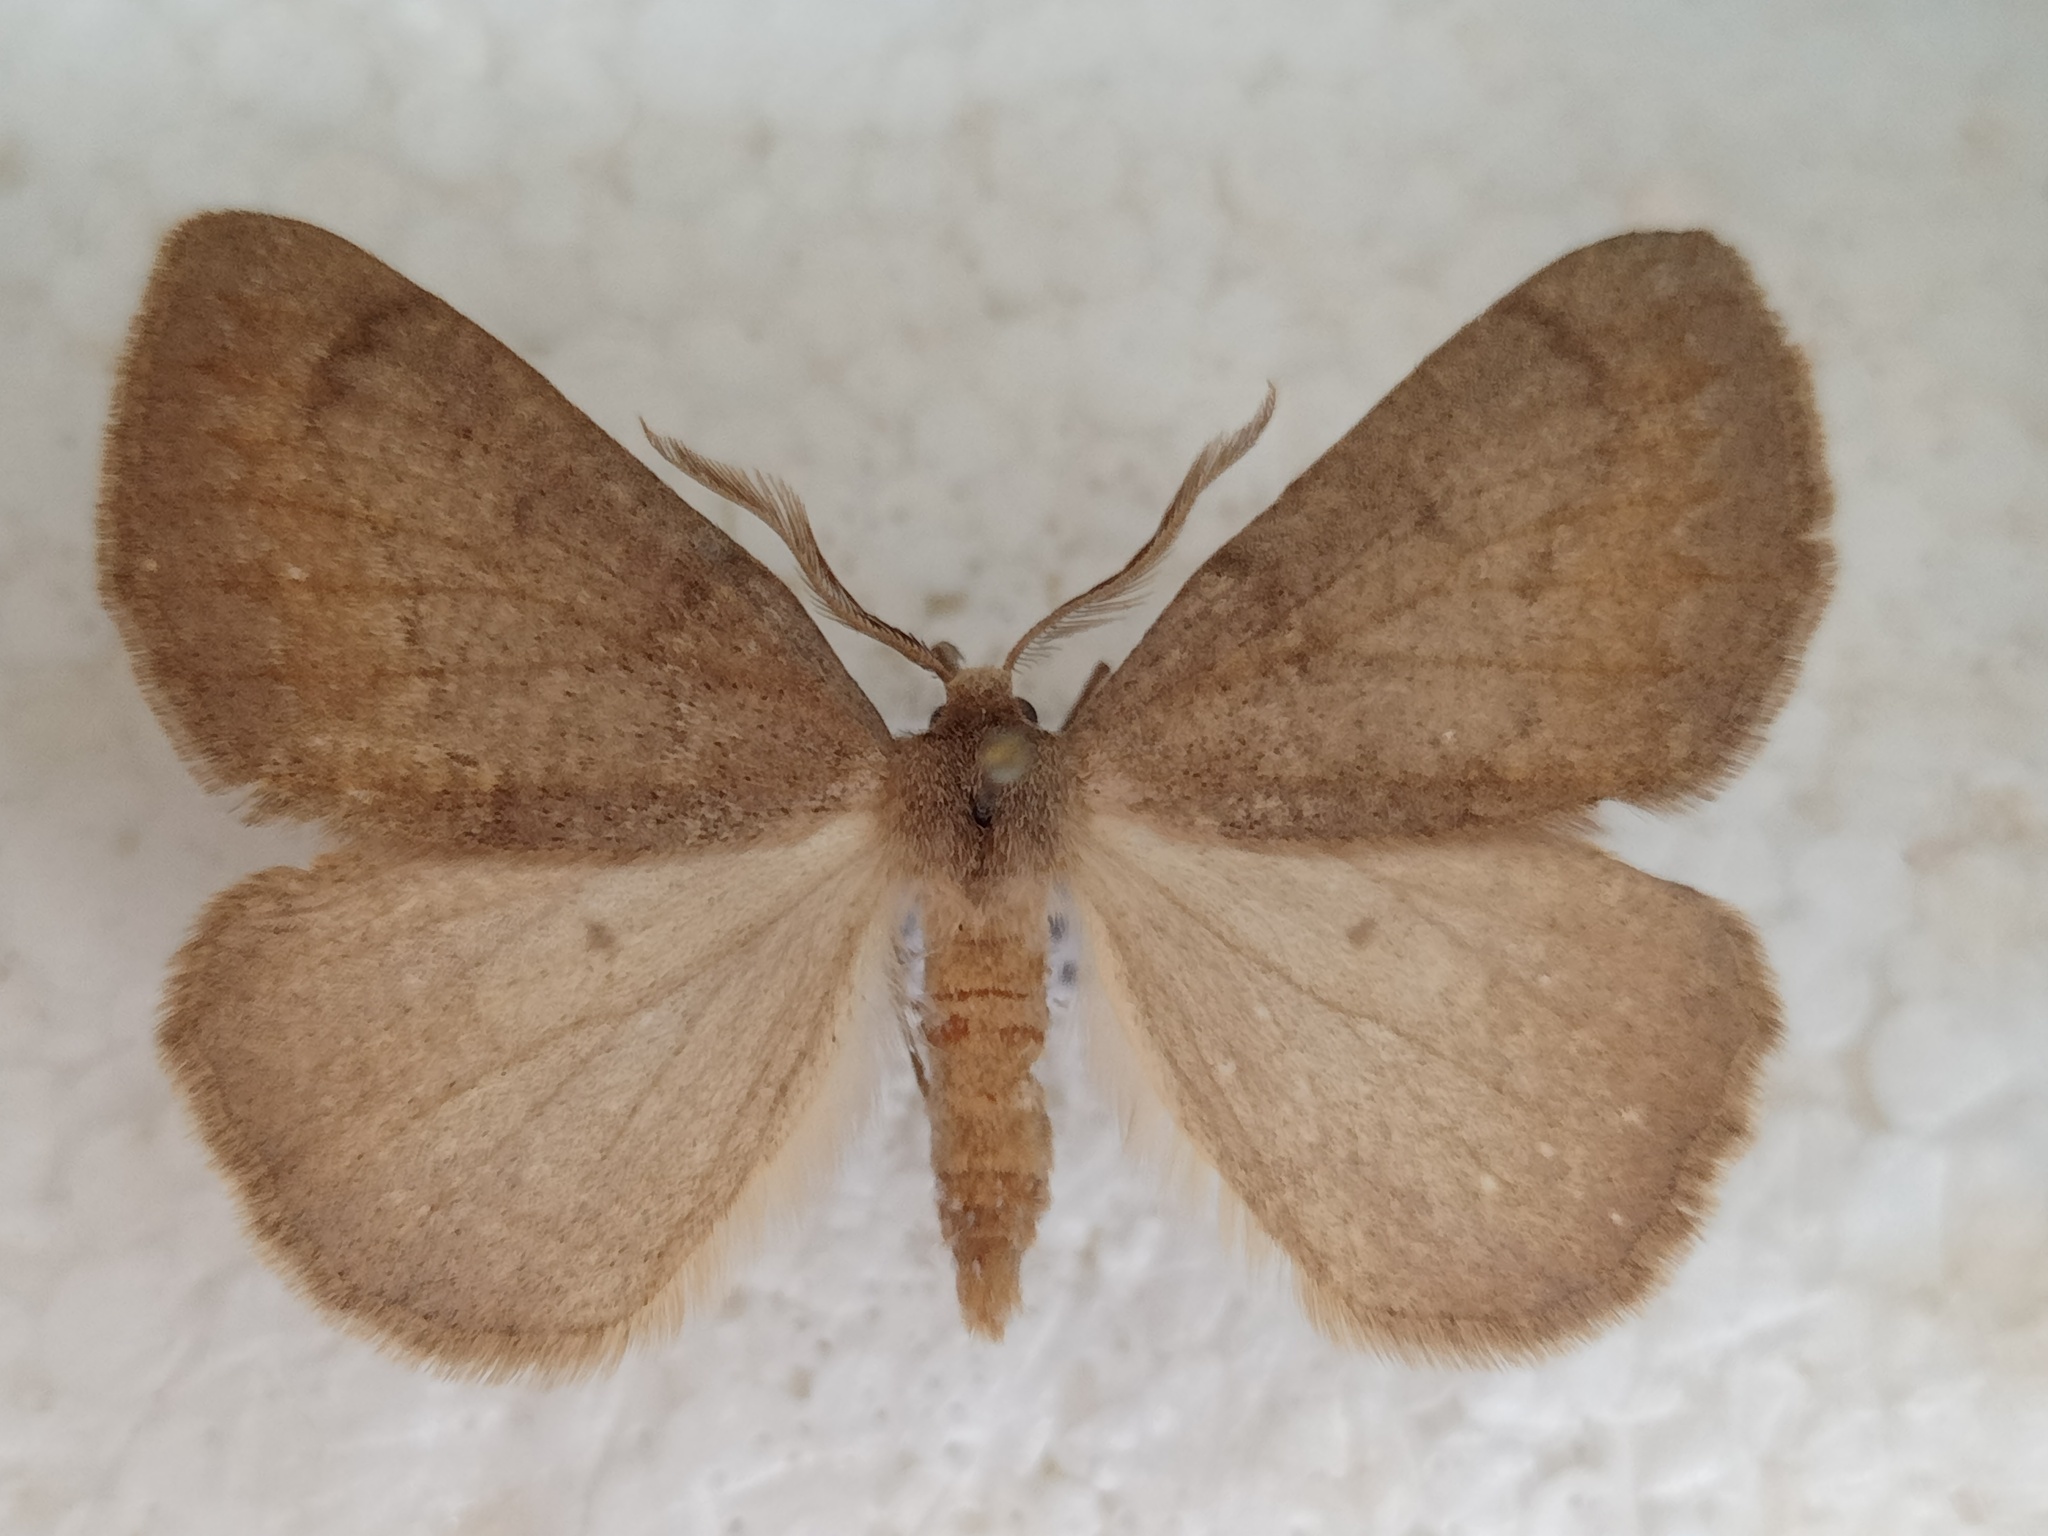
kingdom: Animalia
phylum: Arthropoda
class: Insecta
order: Lepidoptera
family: Geometridae
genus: Onychora
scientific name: Onychora agaritharia
